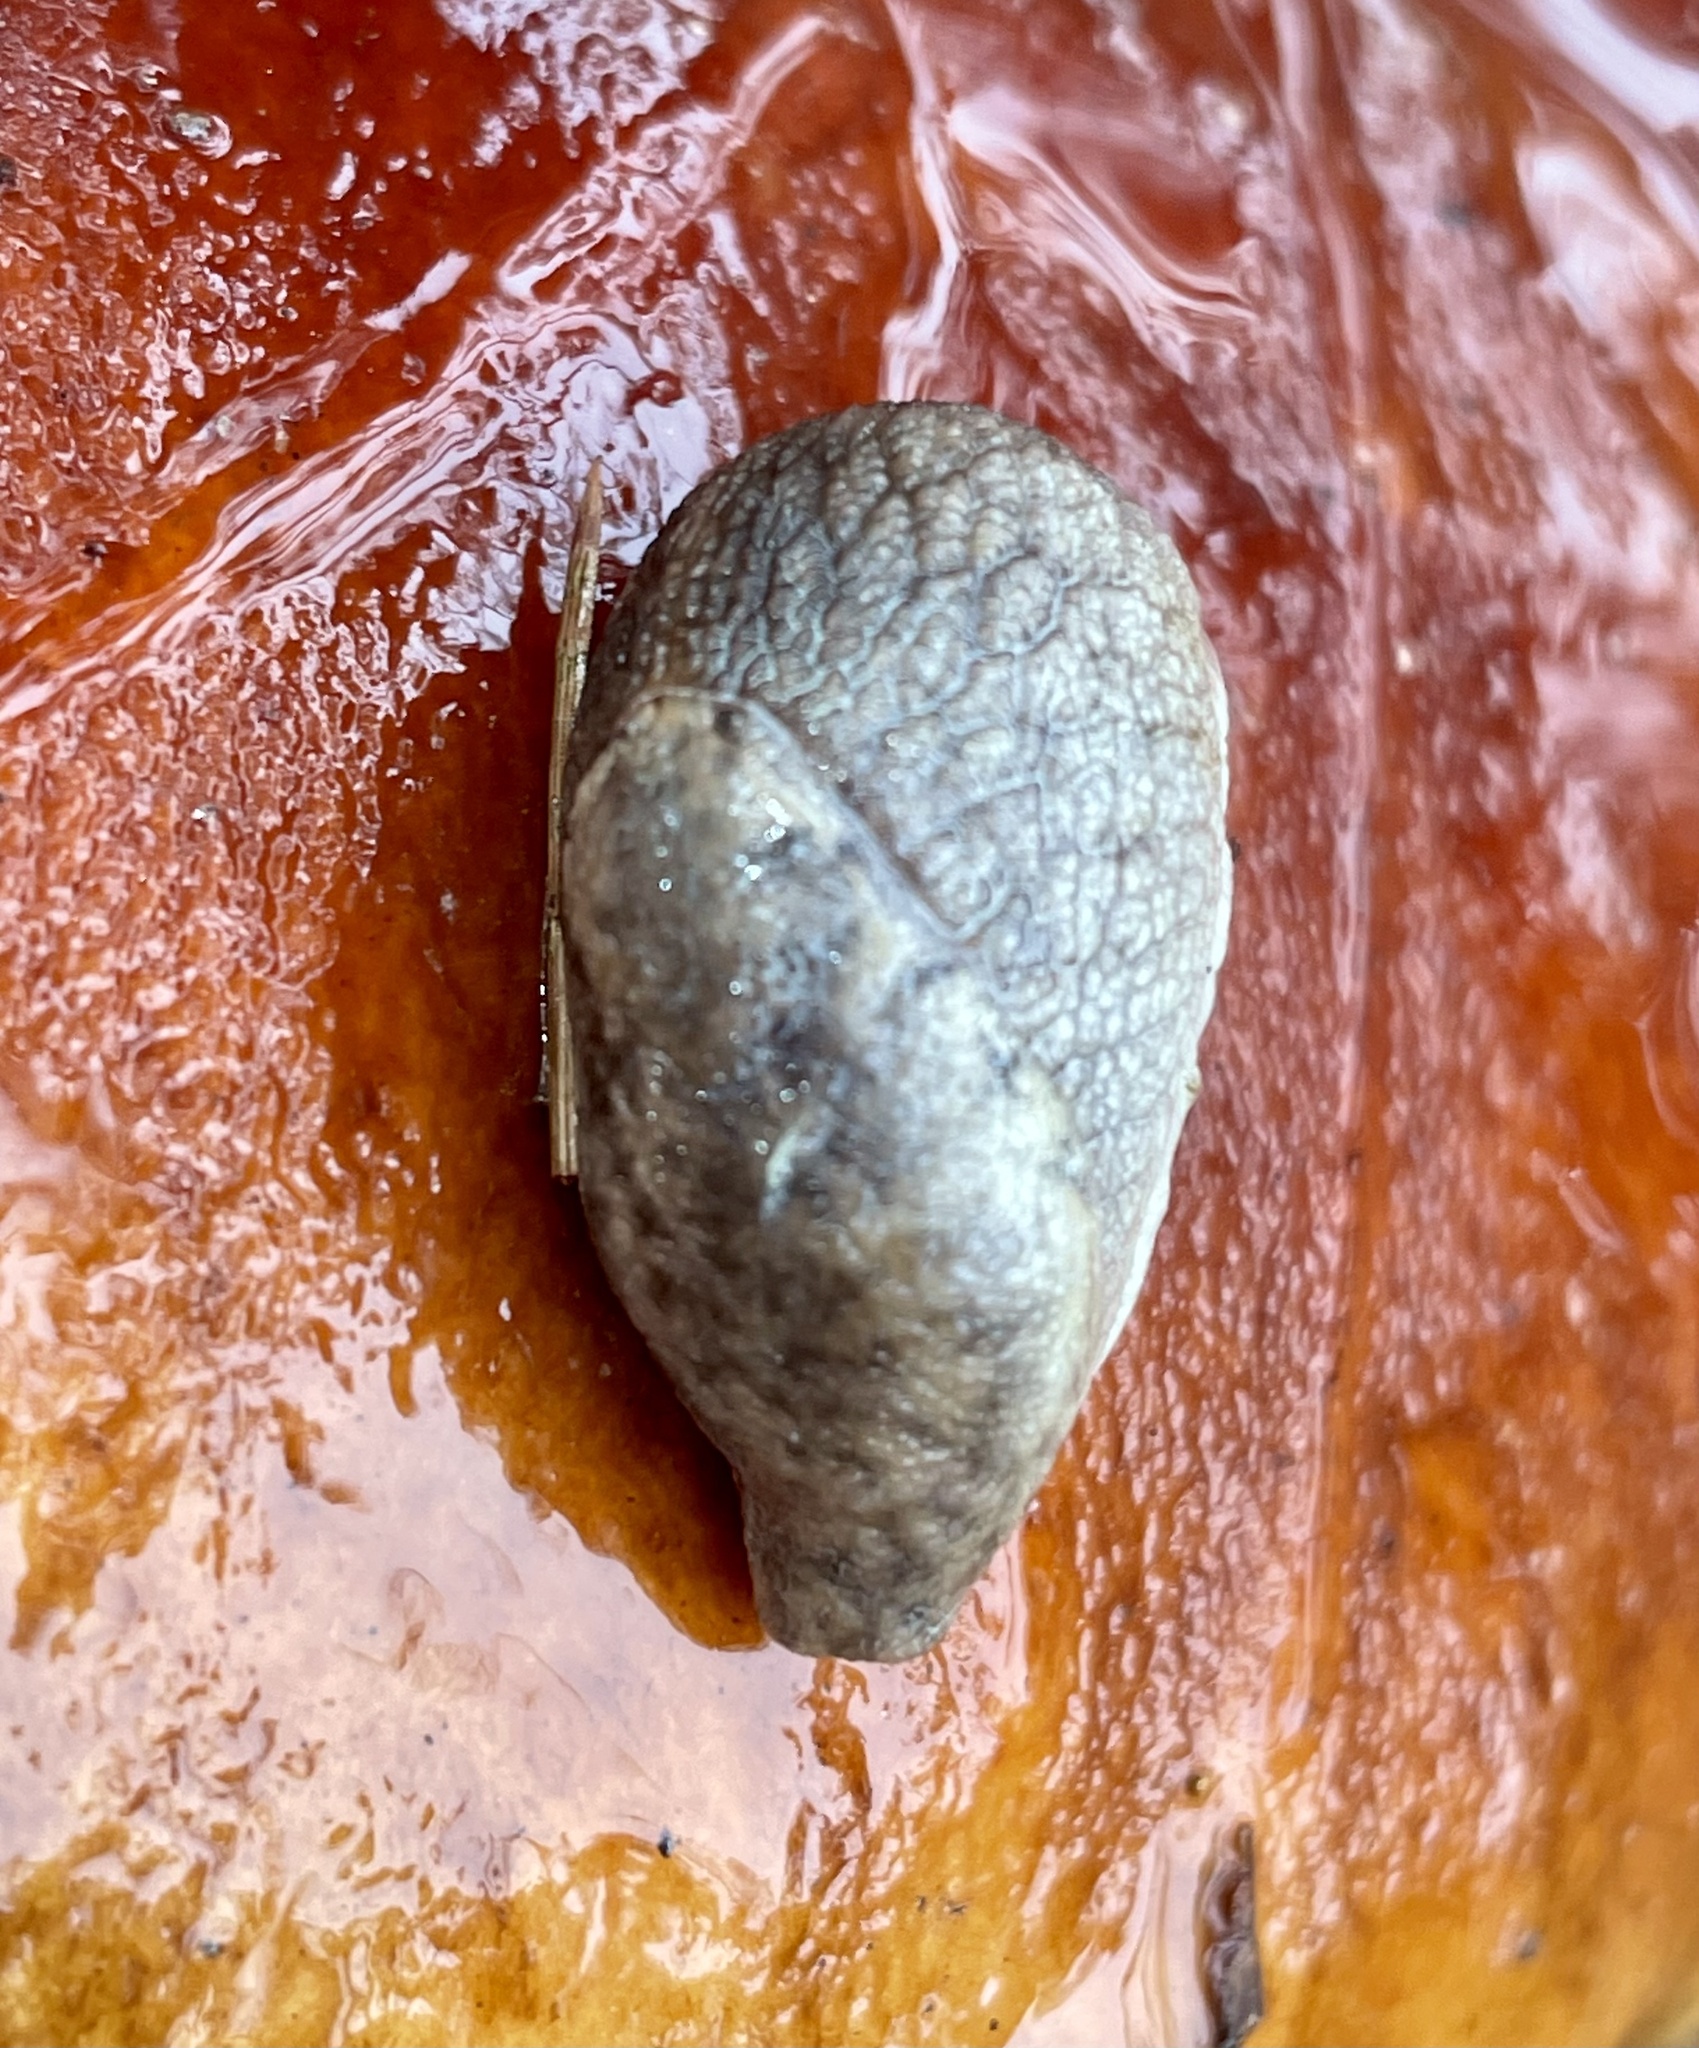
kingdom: Animalia
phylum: Mollusca
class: Gastropoda
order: Stylommatophora
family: Ariolimacidae
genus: Prophysaon
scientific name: Prophysaon andersonii
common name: Reticulate taildropper
